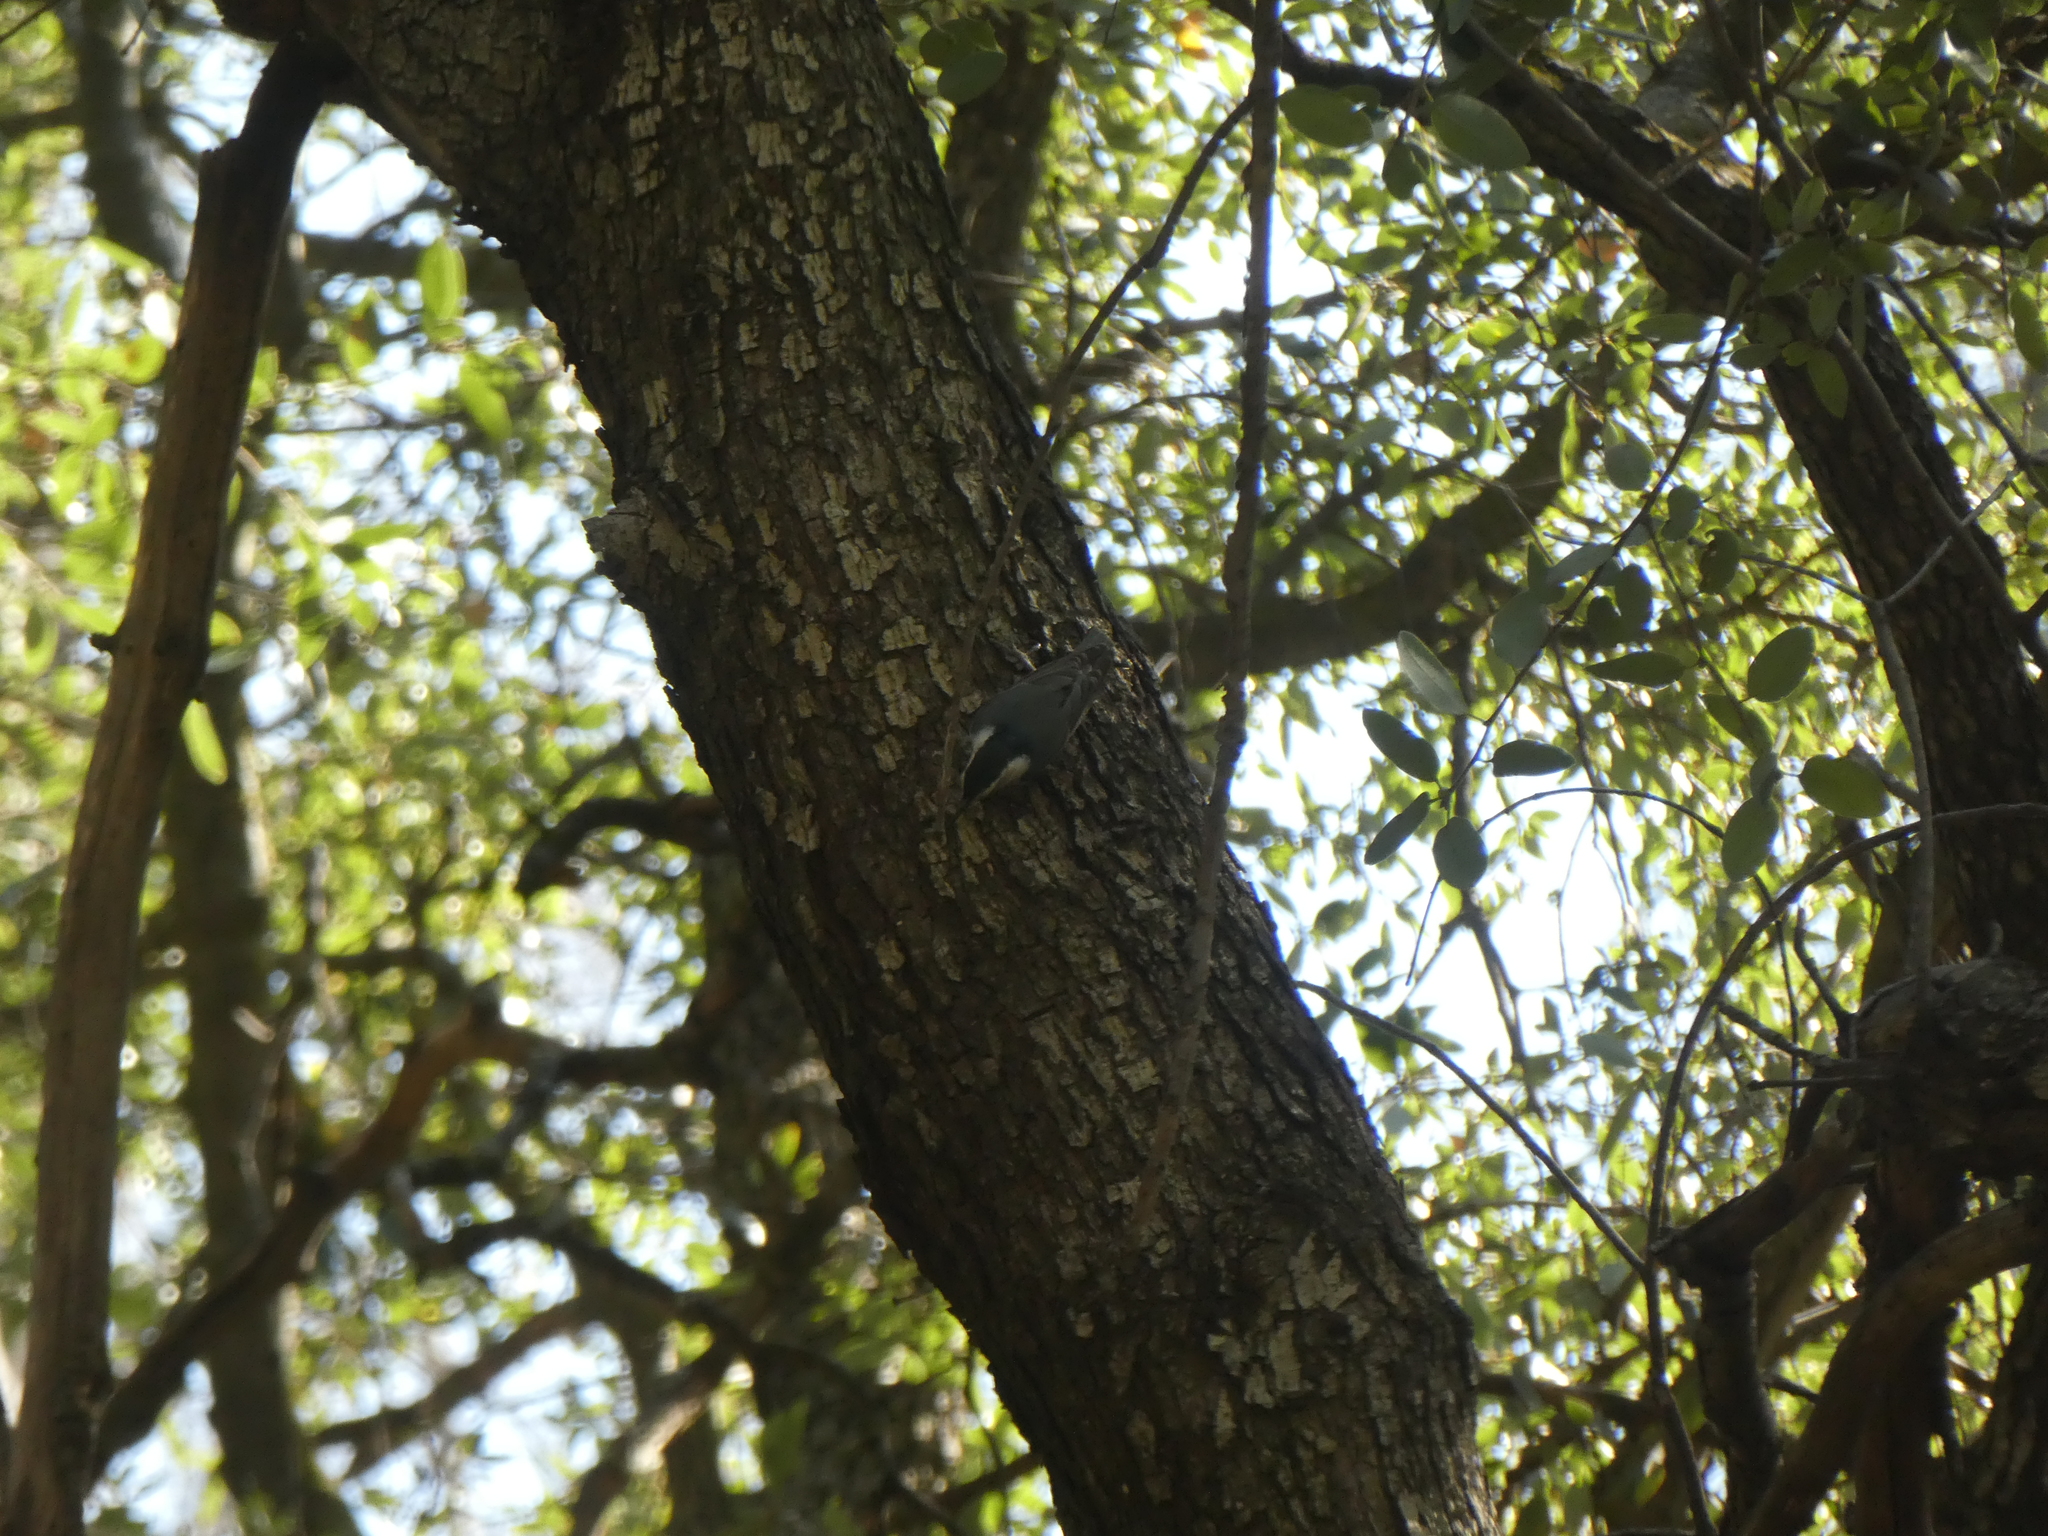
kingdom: Animalia
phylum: Chordata
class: Aves
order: Passeriformes
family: Sittidae
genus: Sitta
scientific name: Sitta carolinensis
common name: White-breasted nuthatch
